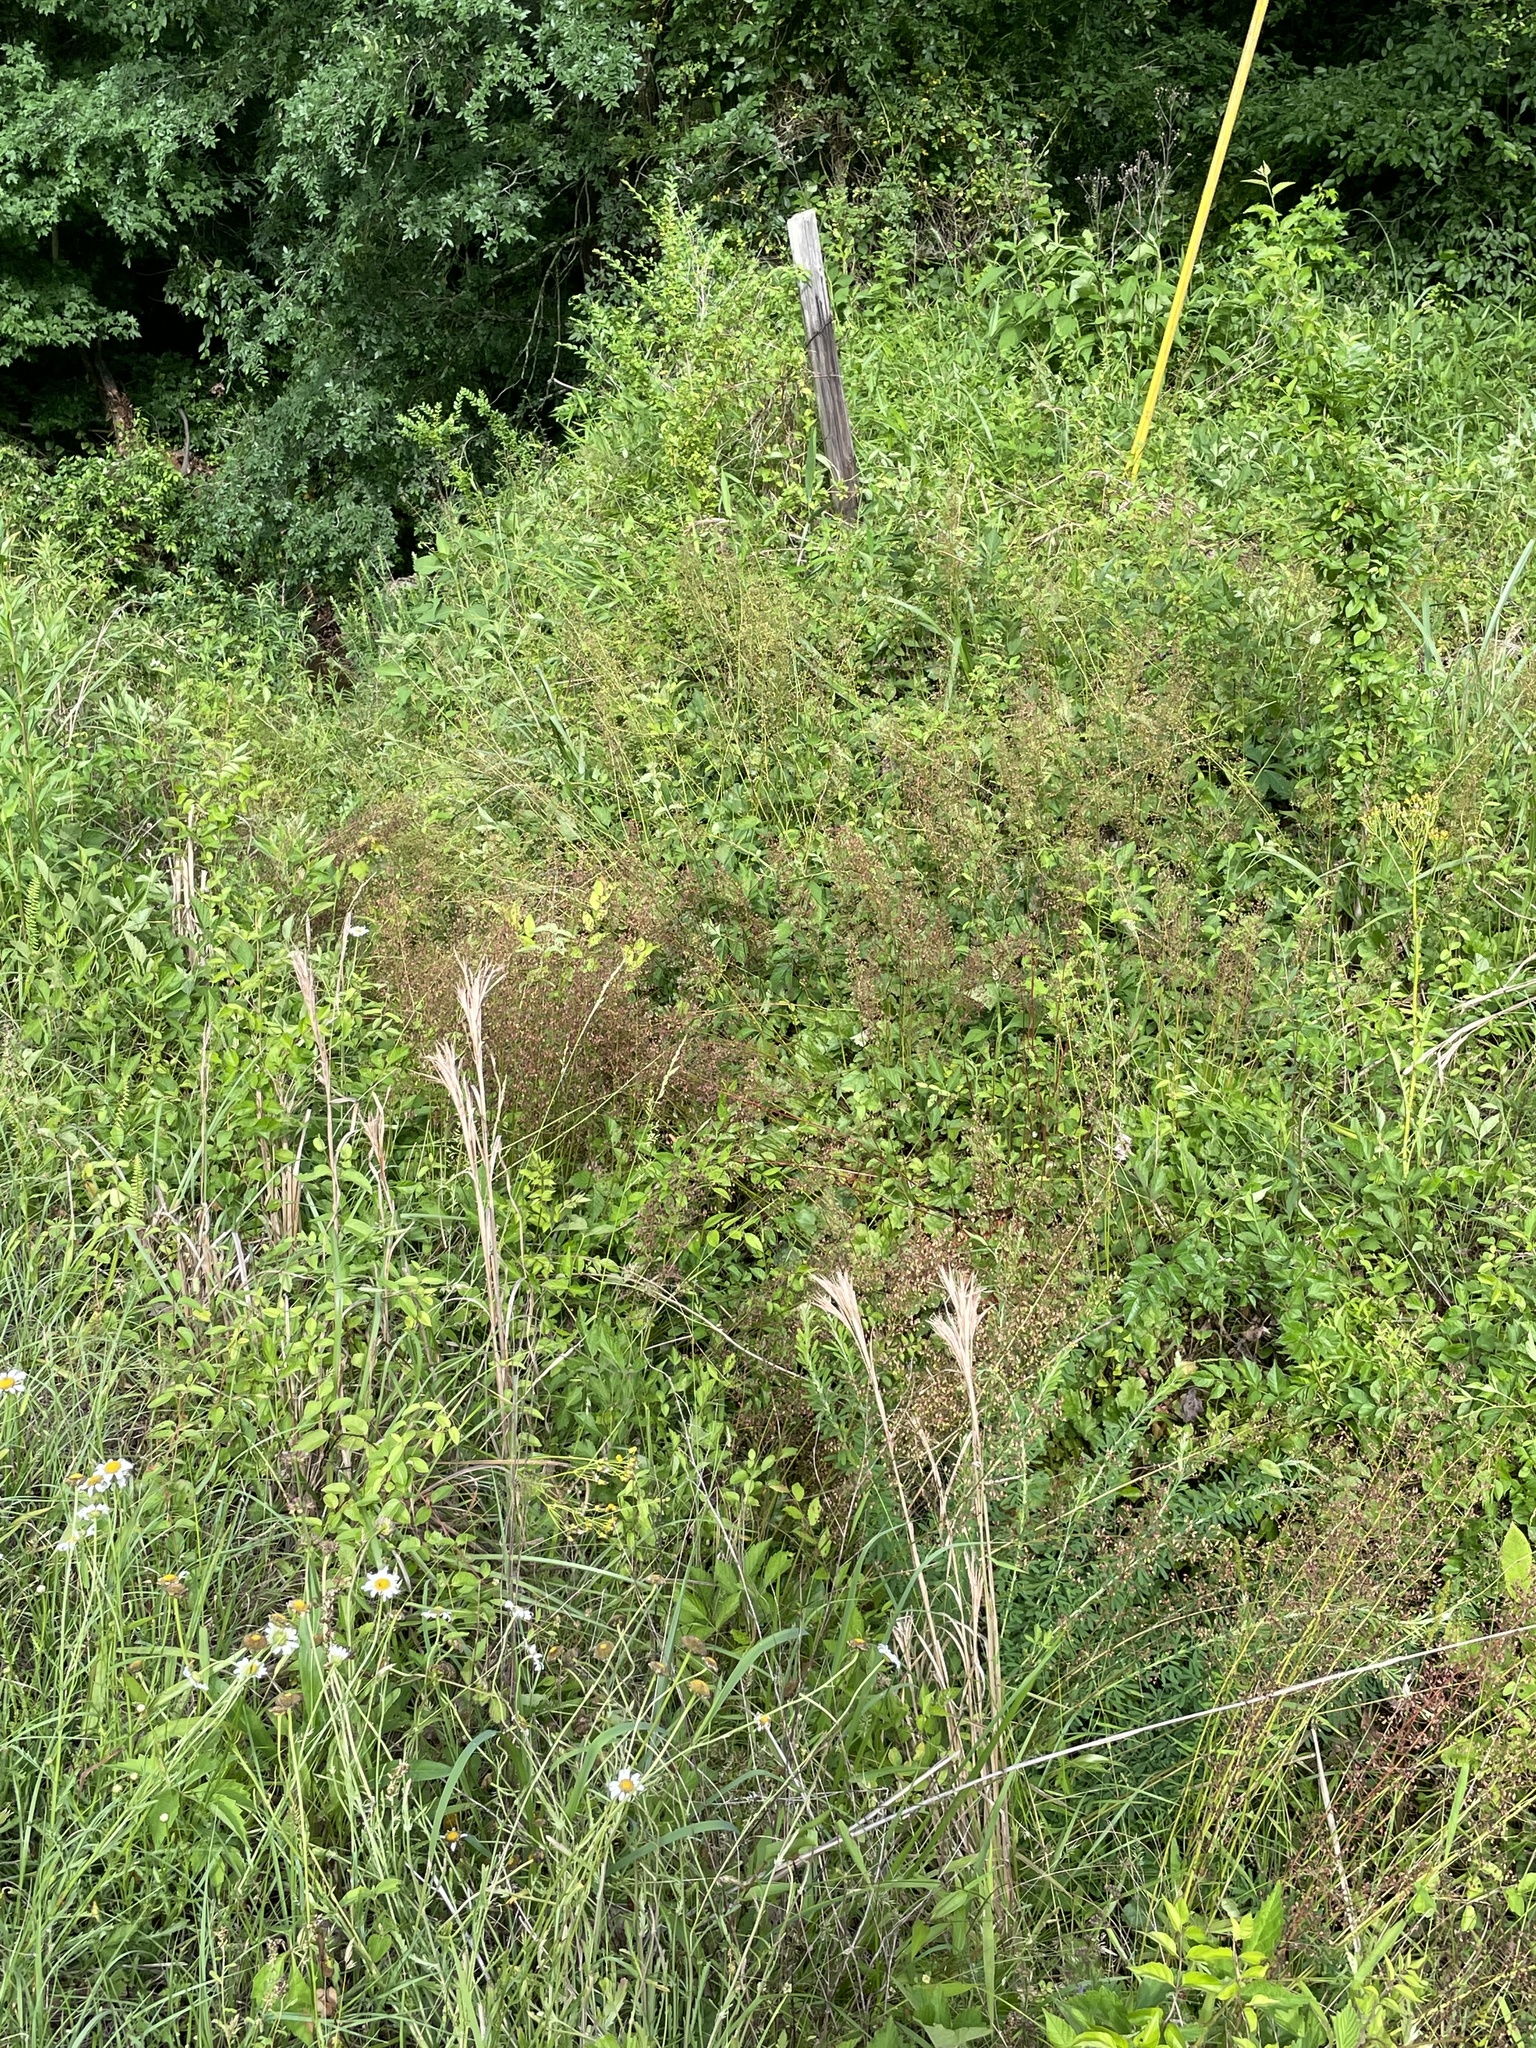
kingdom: Plantae
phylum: Tracheophyta
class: Magnoliopsida
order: Saxifragales
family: Saxifragaceae
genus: Heuchera
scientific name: Heuchera caroliniana
